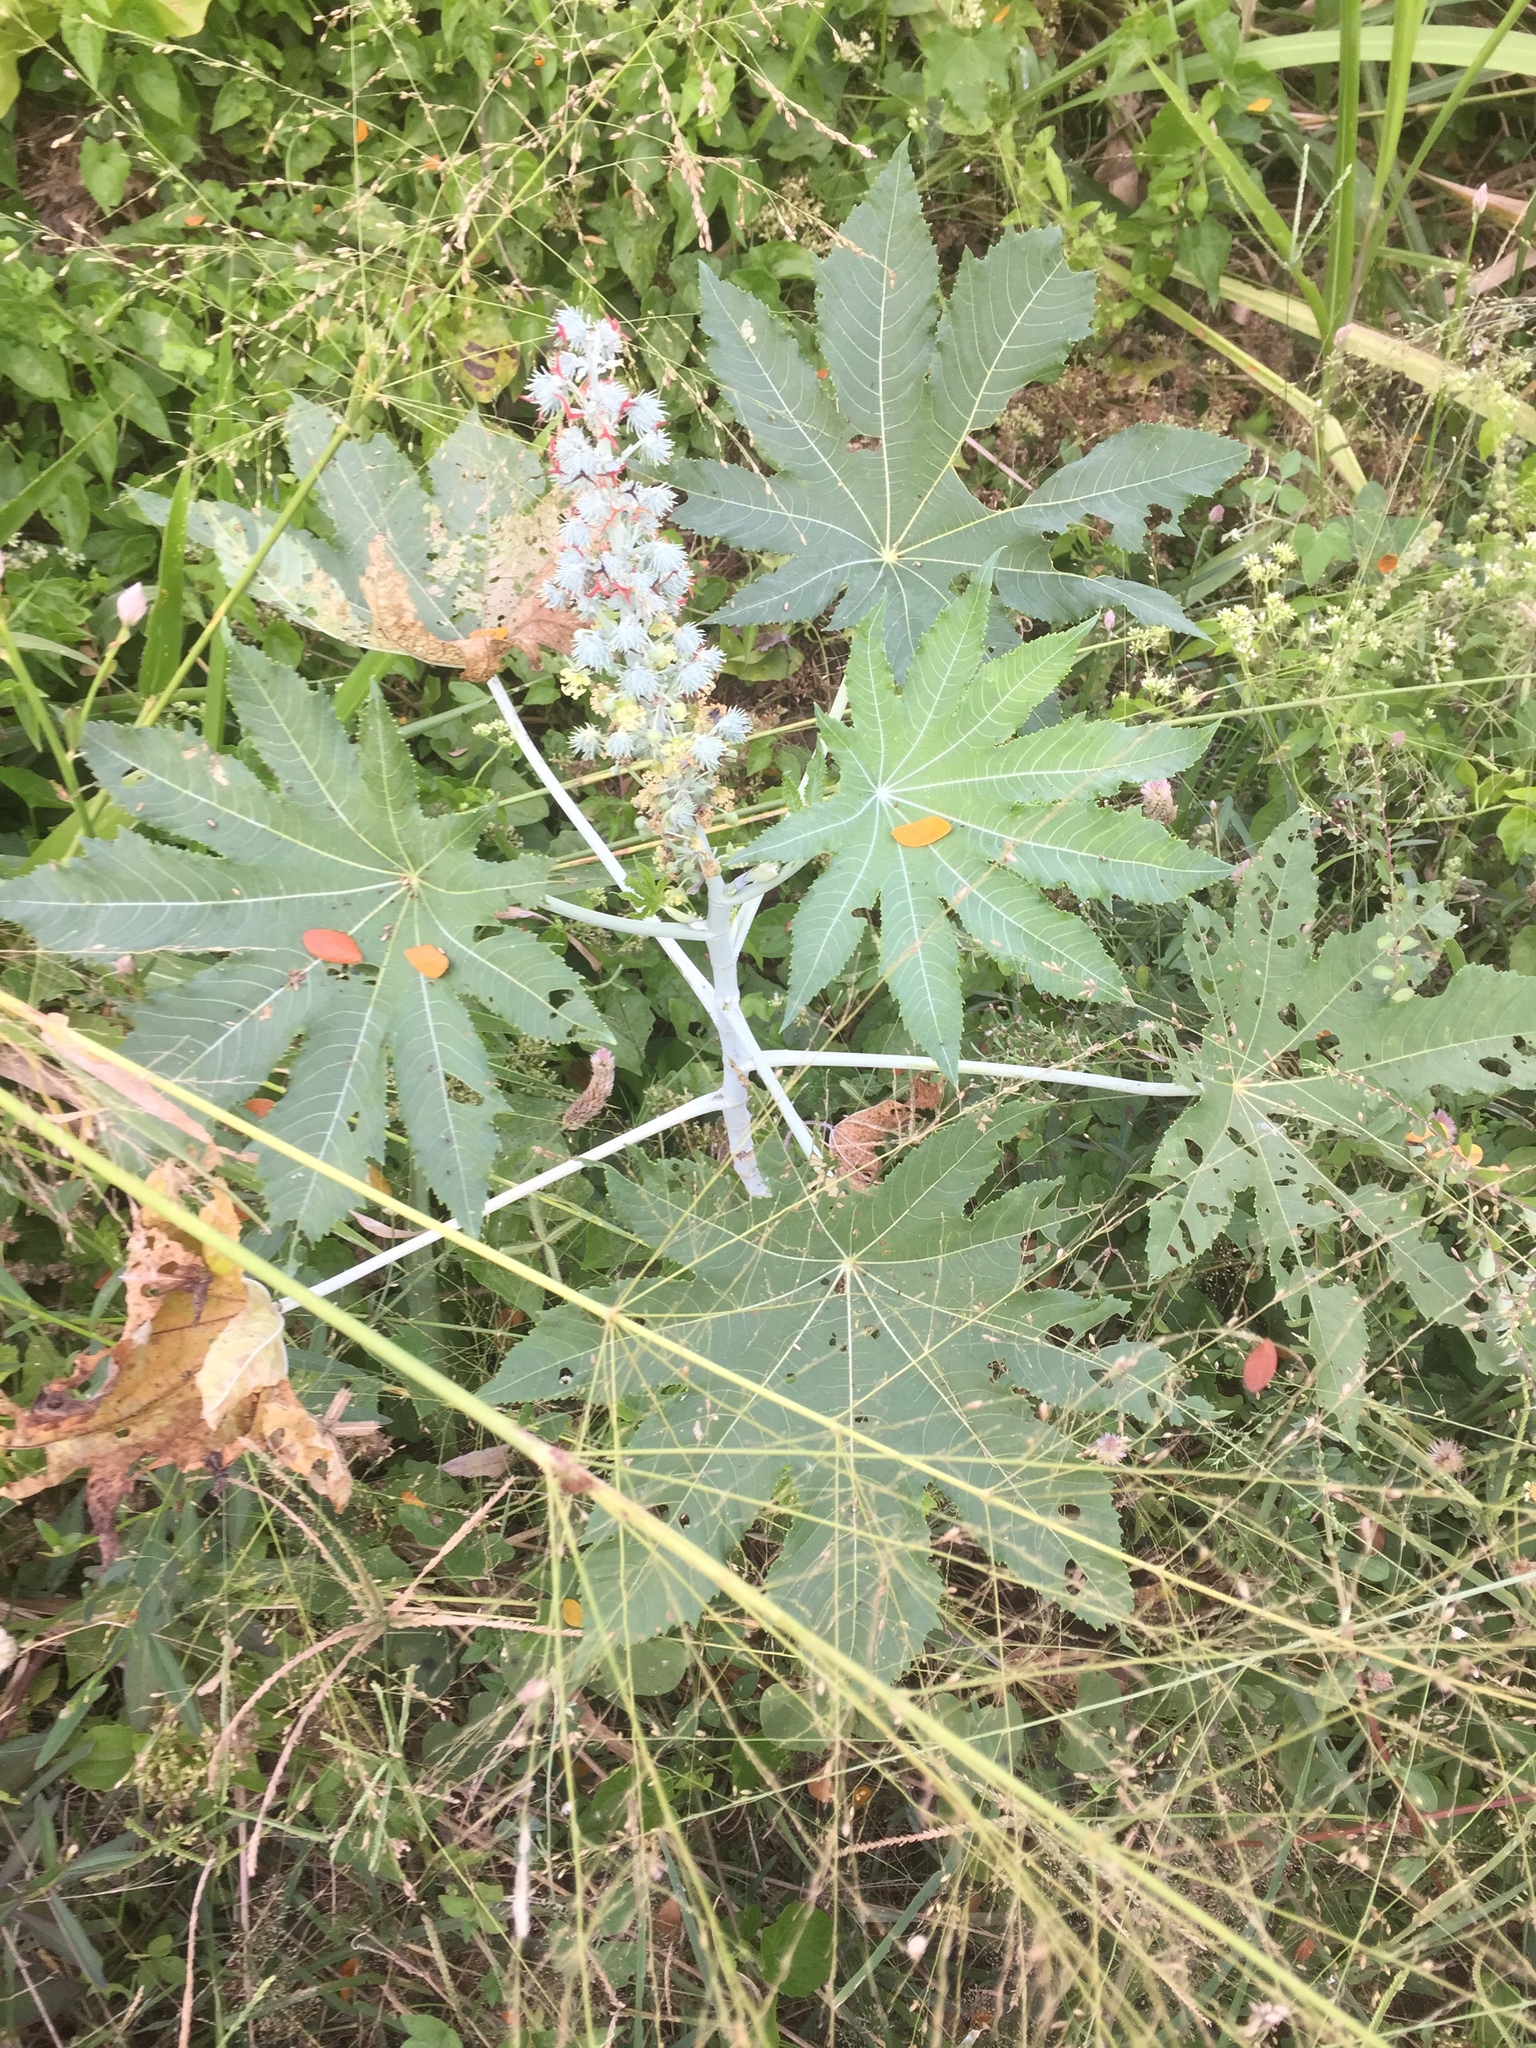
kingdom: Plantae
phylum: Tracheophyta
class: Magnoliopsida
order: Malpighiales
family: Euphorbiaceae
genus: Ricinus
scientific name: Ricinus communis
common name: Castor-oil-plant
